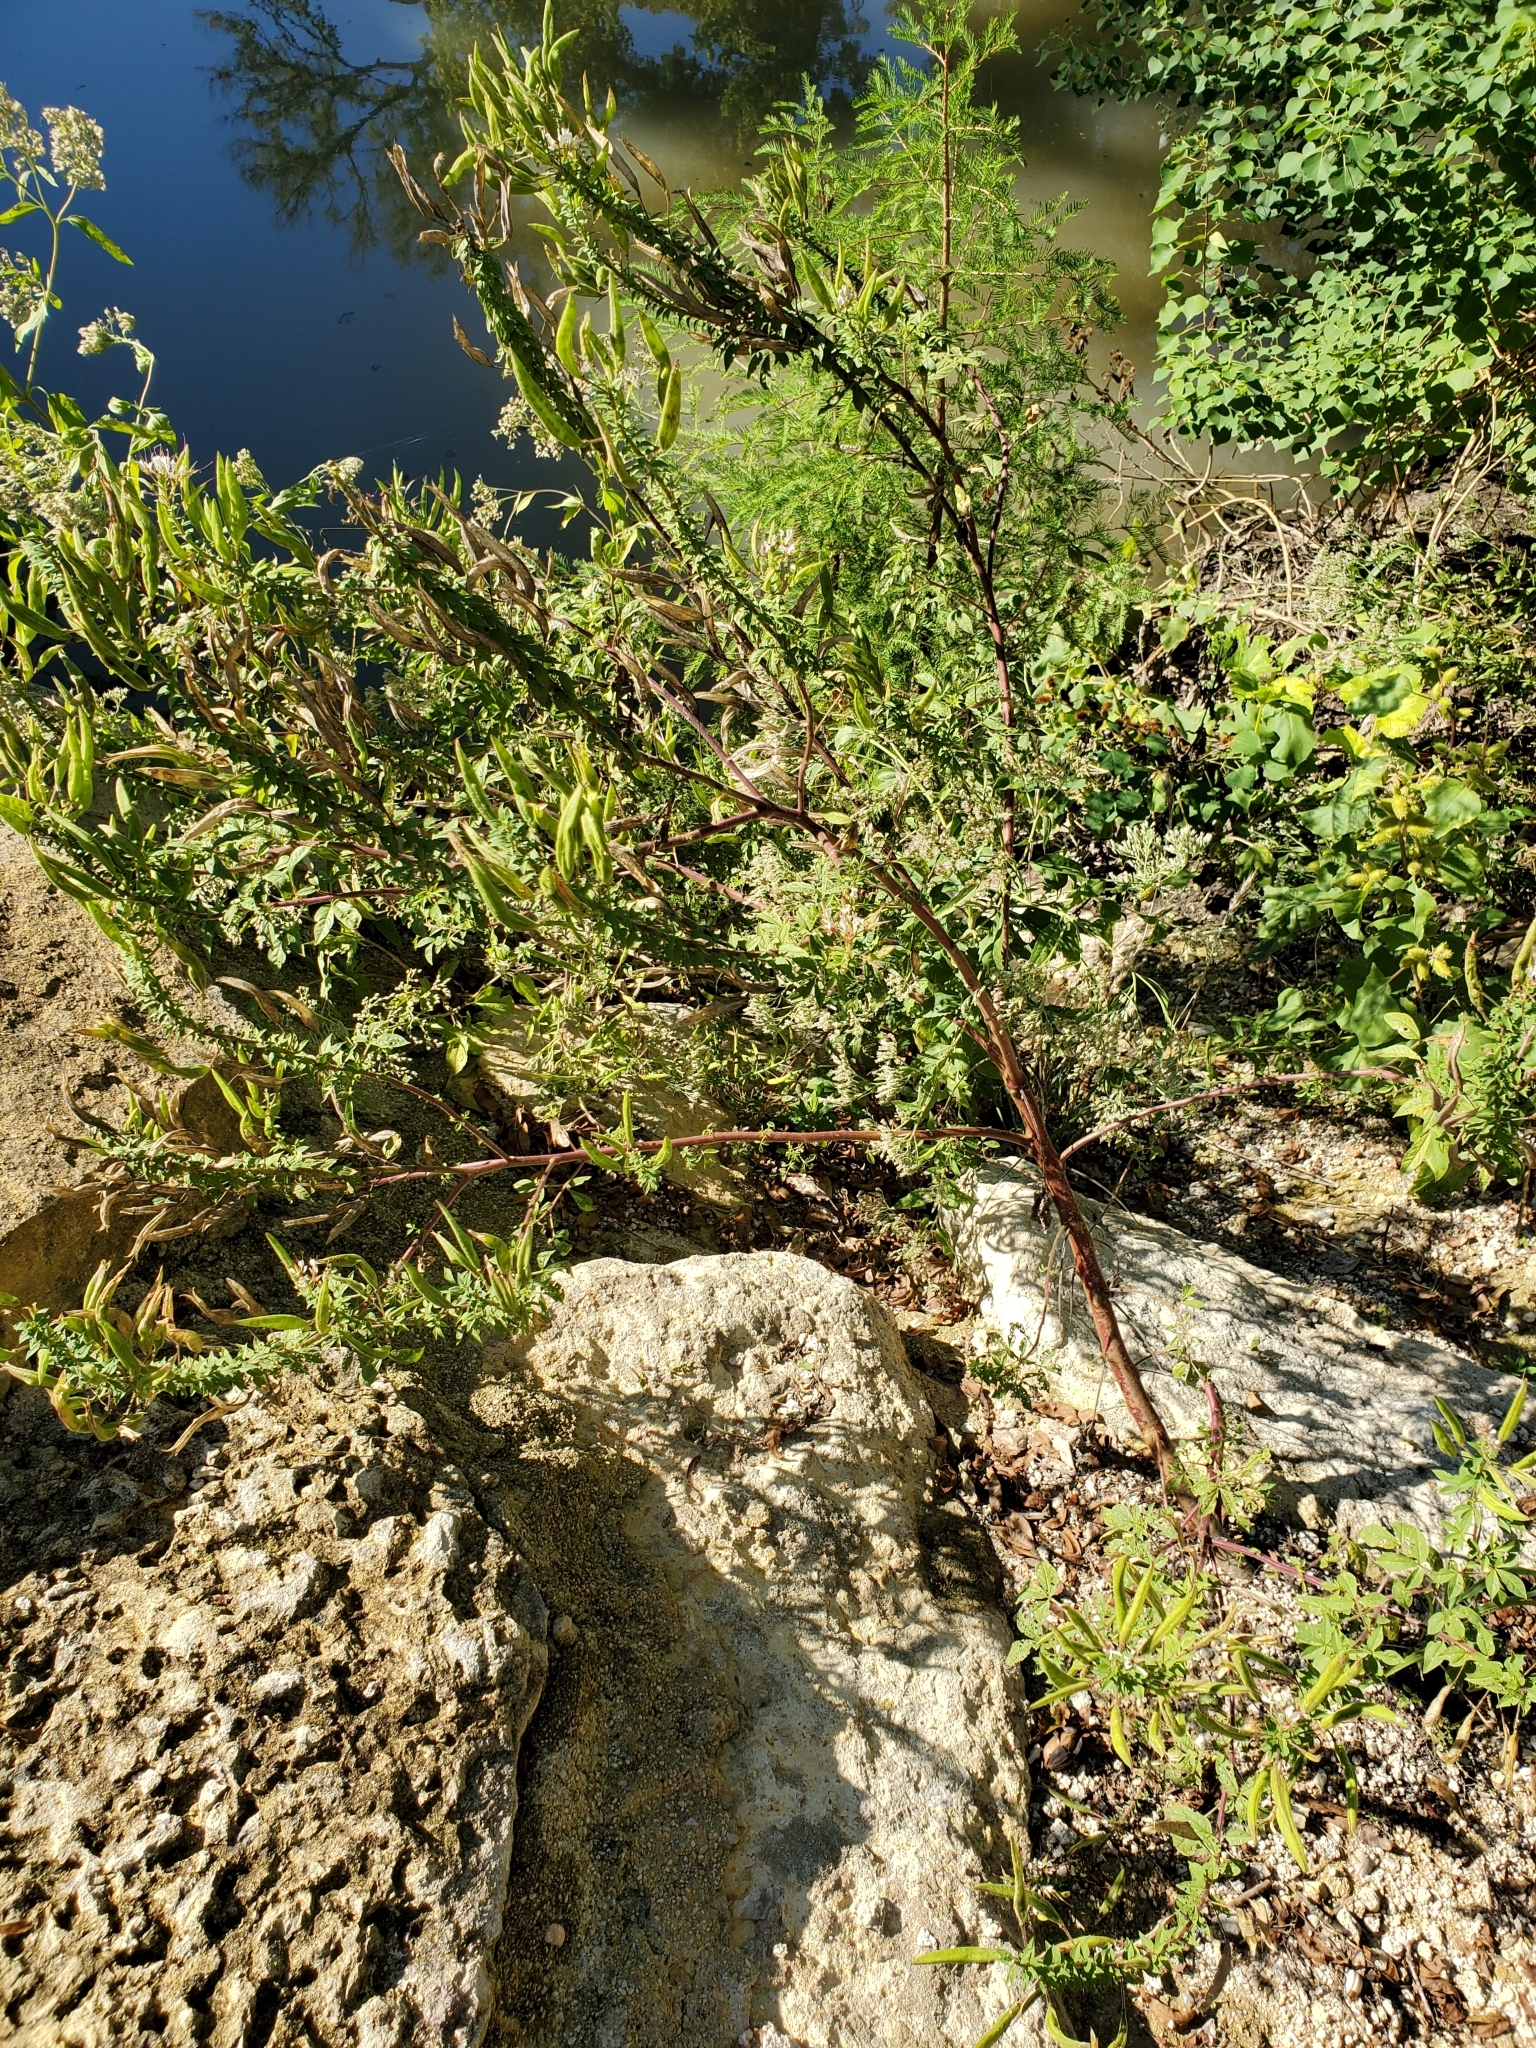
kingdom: Plantae
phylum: Tracheophyta
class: Magnoliopsida
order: Brassicales
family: Cleomaceae
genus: Polanisia
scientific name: Polanisia dodecandra
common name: Clammyweed
